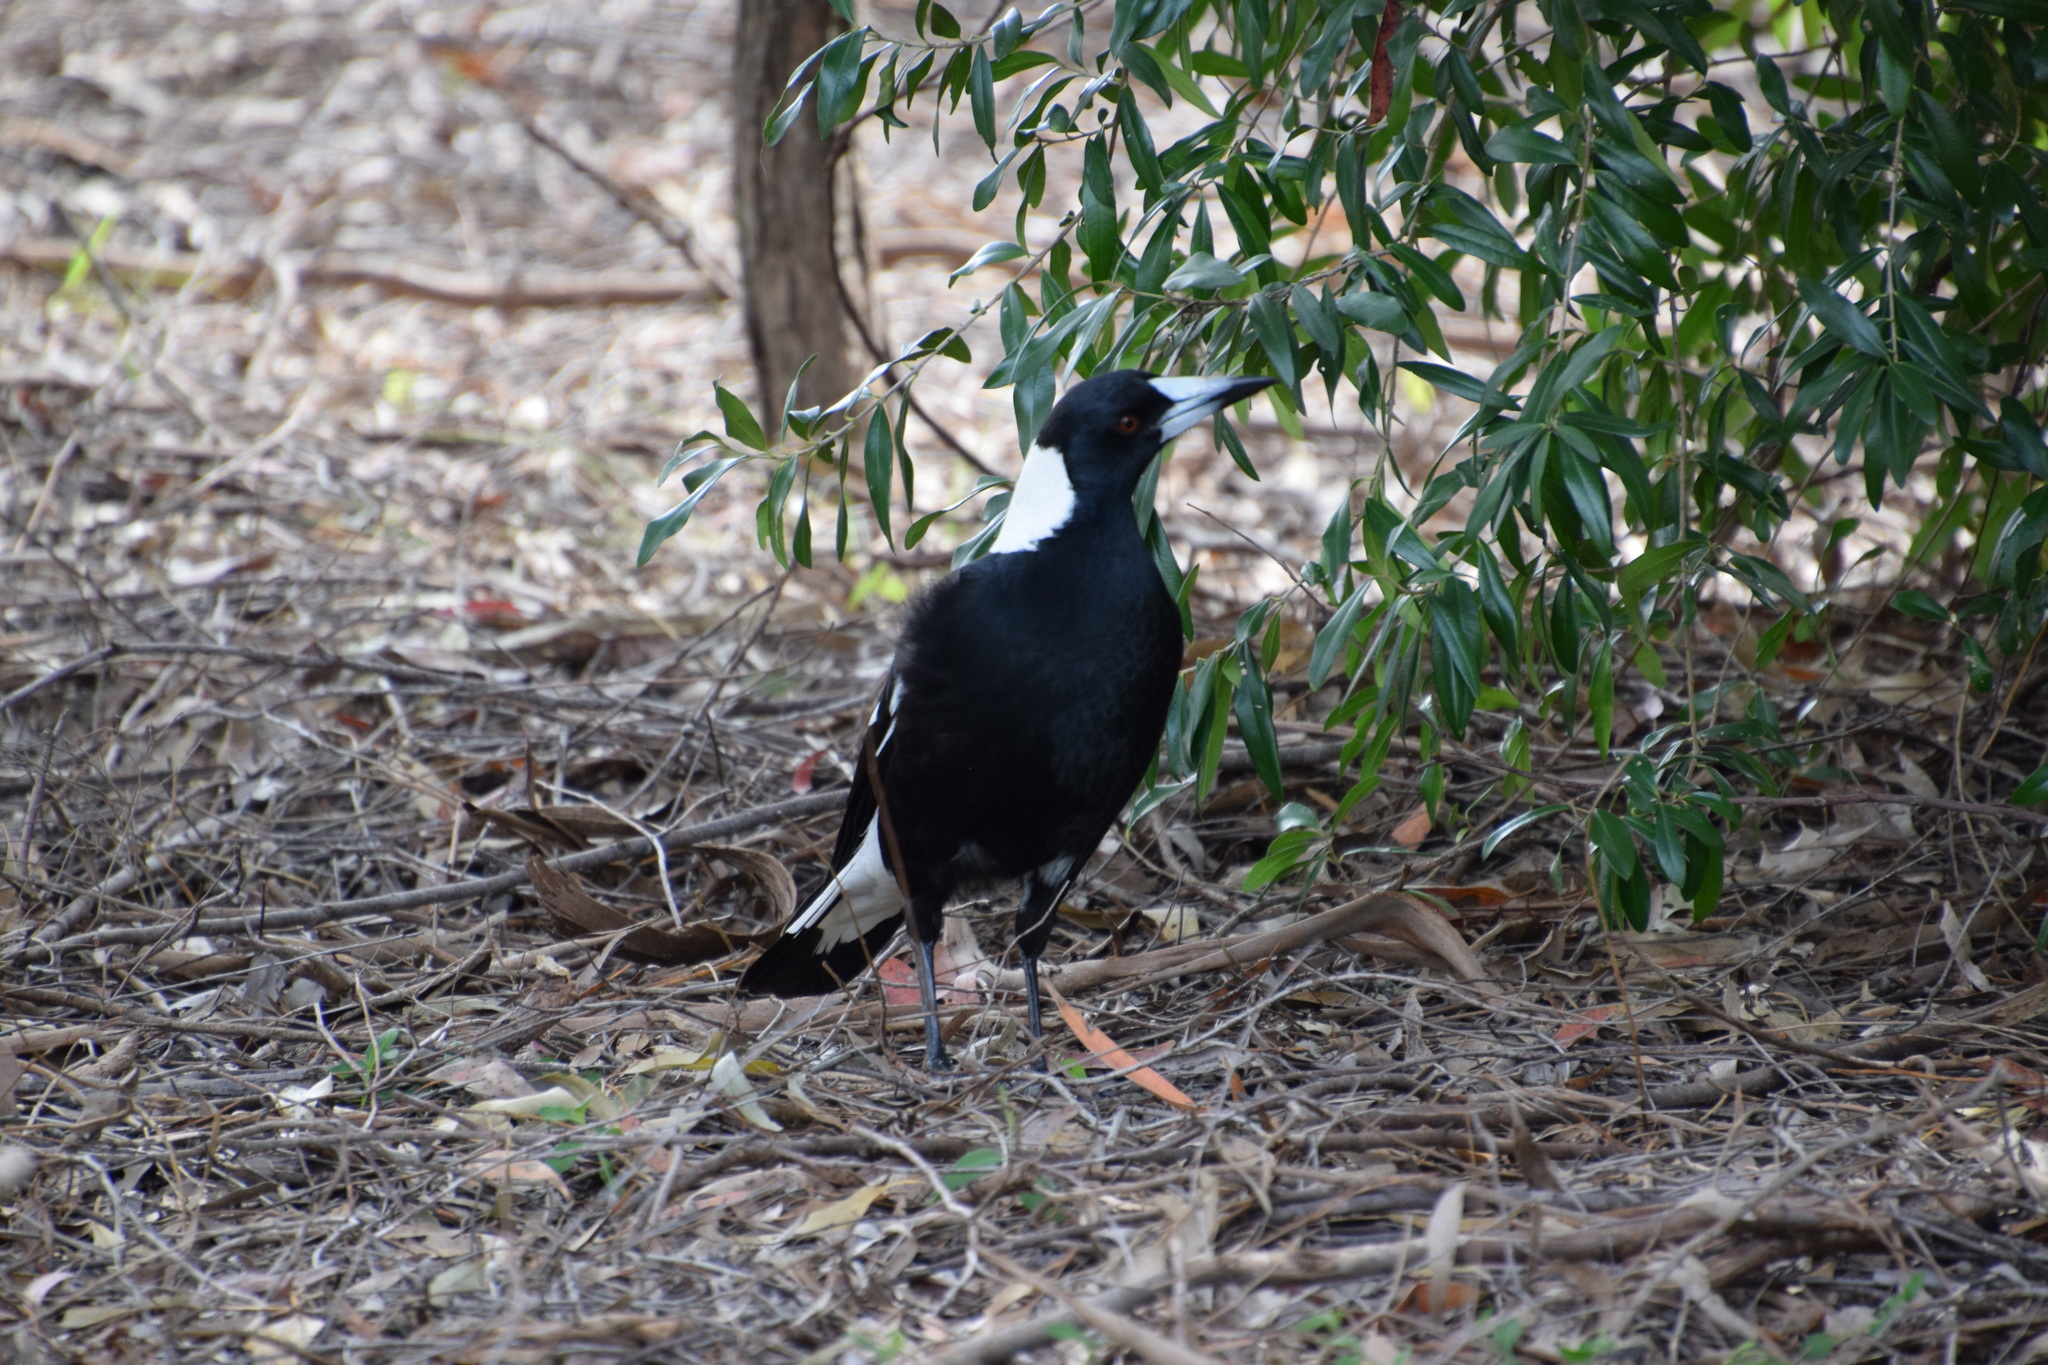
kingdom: Animalia
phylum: Chordata
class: Aves
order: Passeriformes
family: Cracticidae
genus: Gymnorhina
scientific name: Gymnorhina tibicen
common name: Australian magpie
